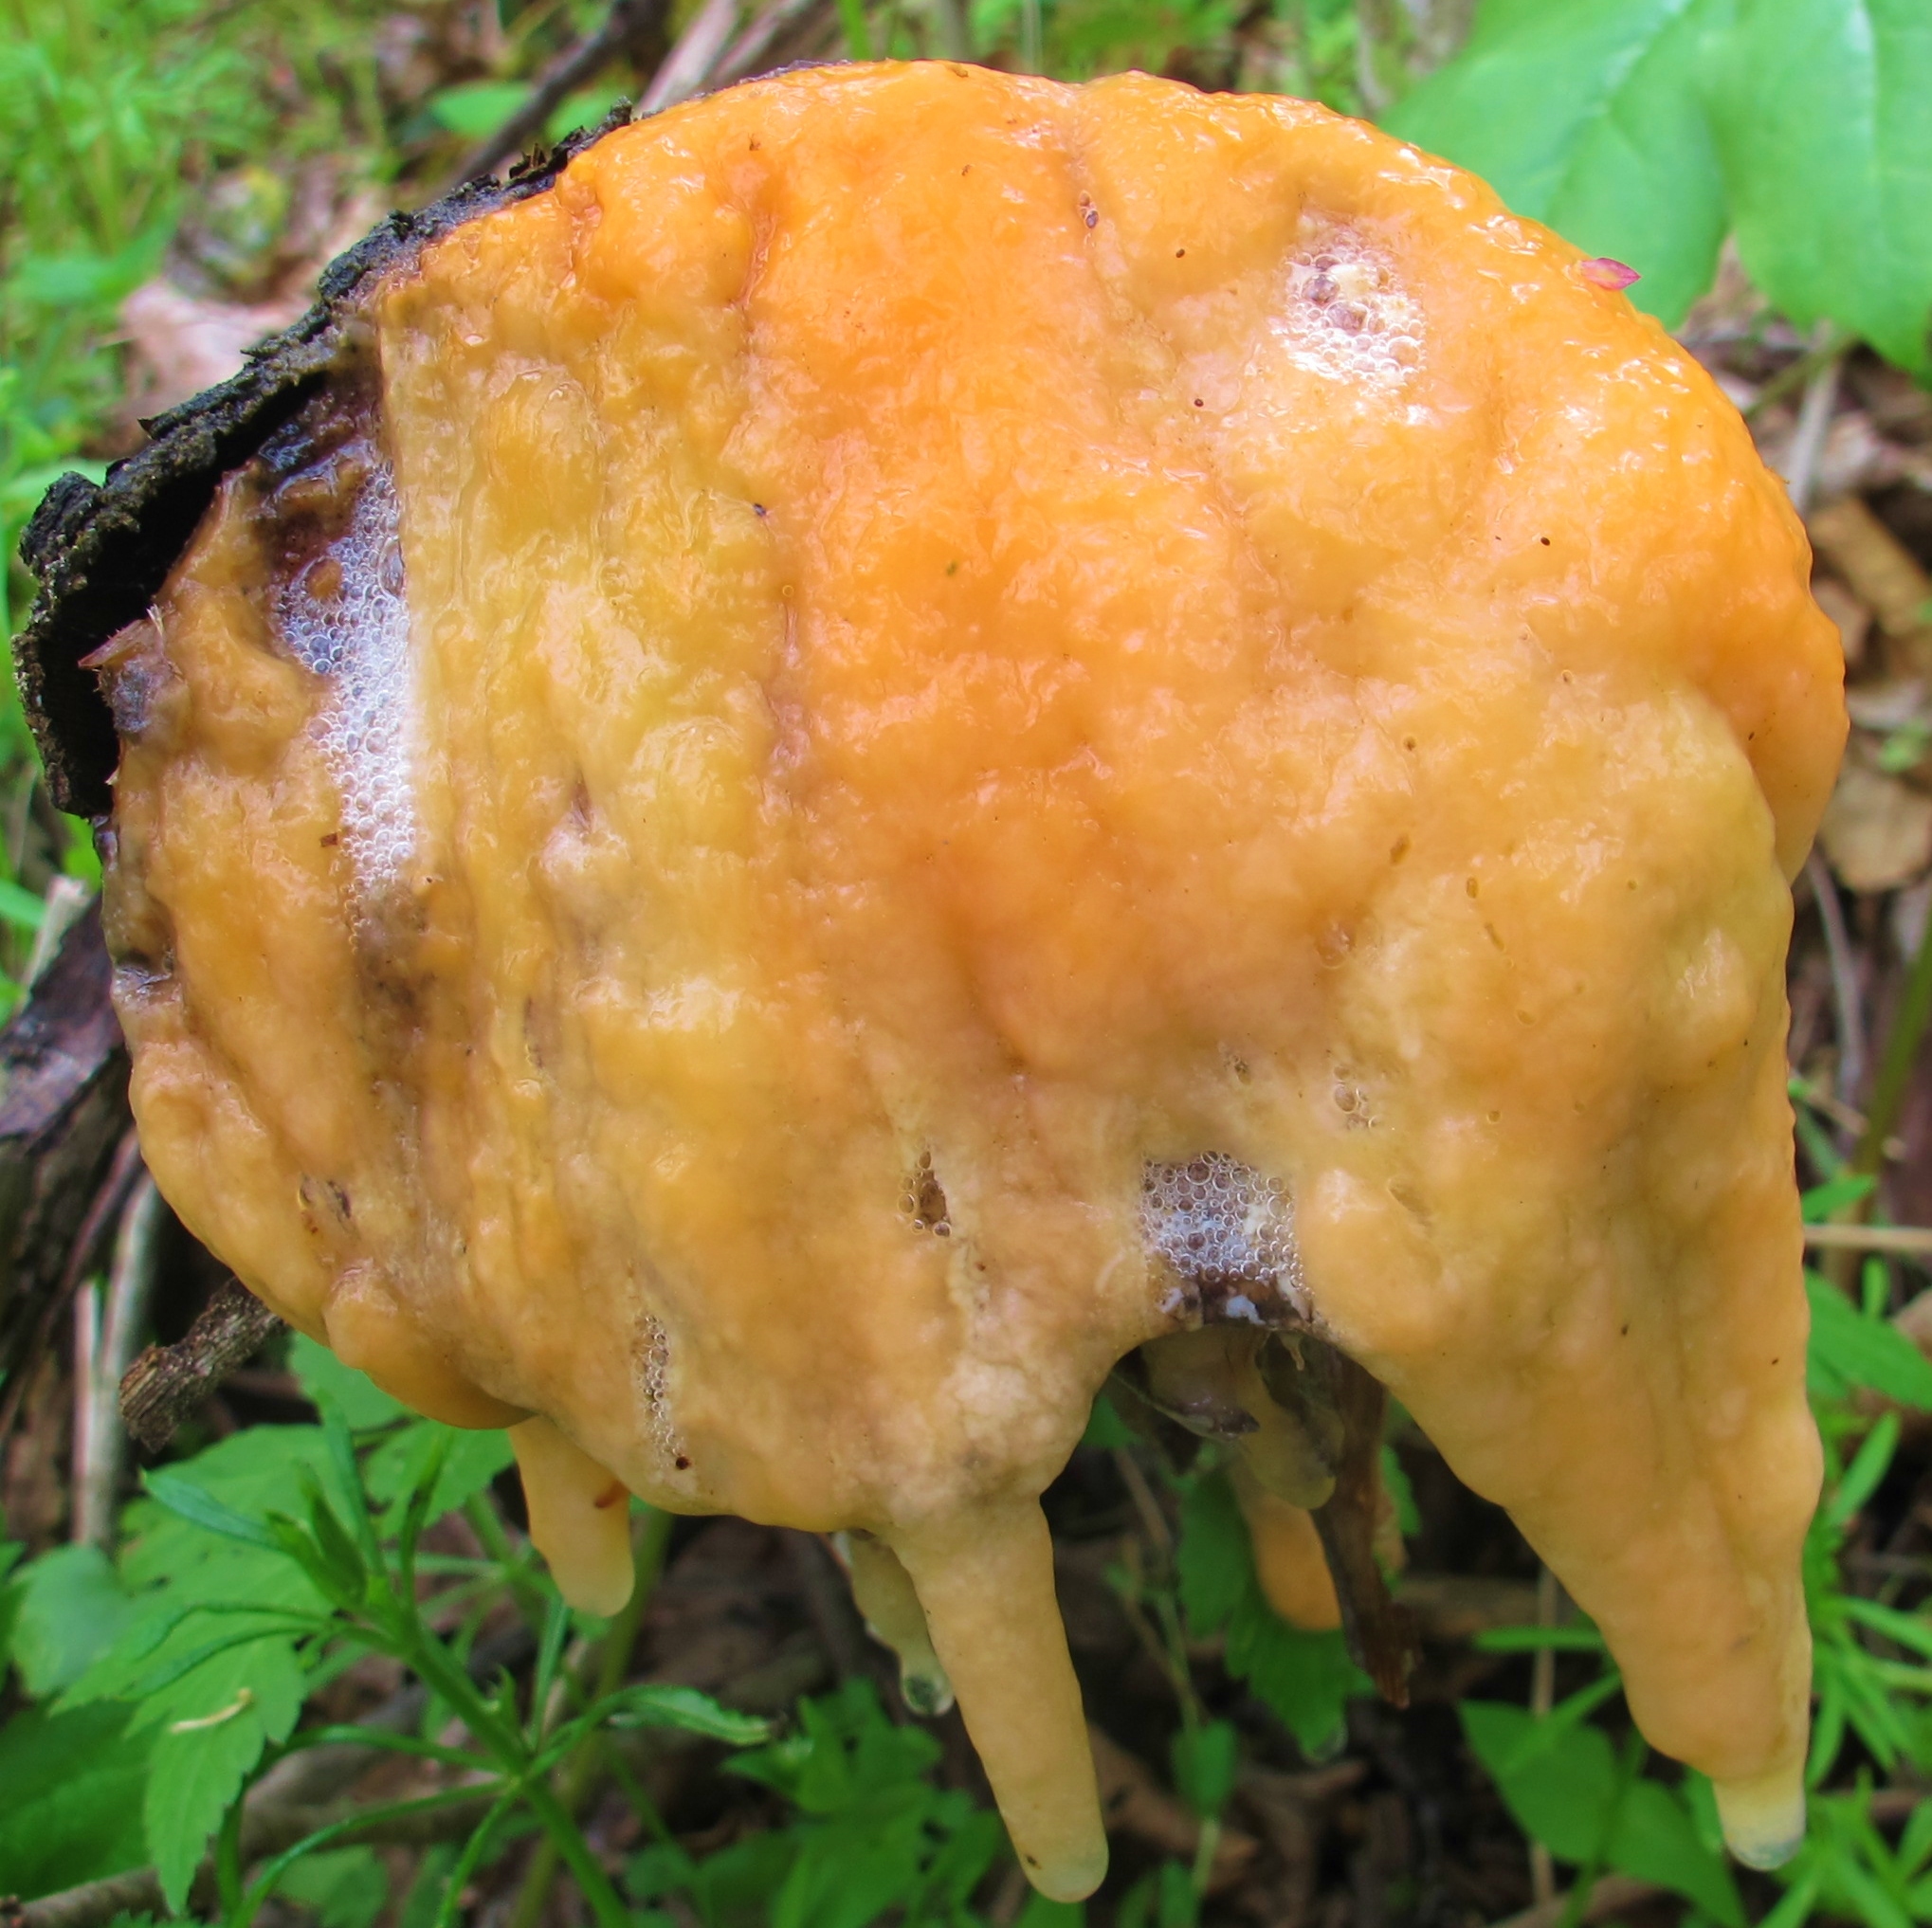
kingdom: Fungi
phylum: Ascomycota
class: Sordariomycetes
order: Hypocreales
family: Nectriaceae
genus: Fusicolla
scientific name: Fusicolla merismoides
